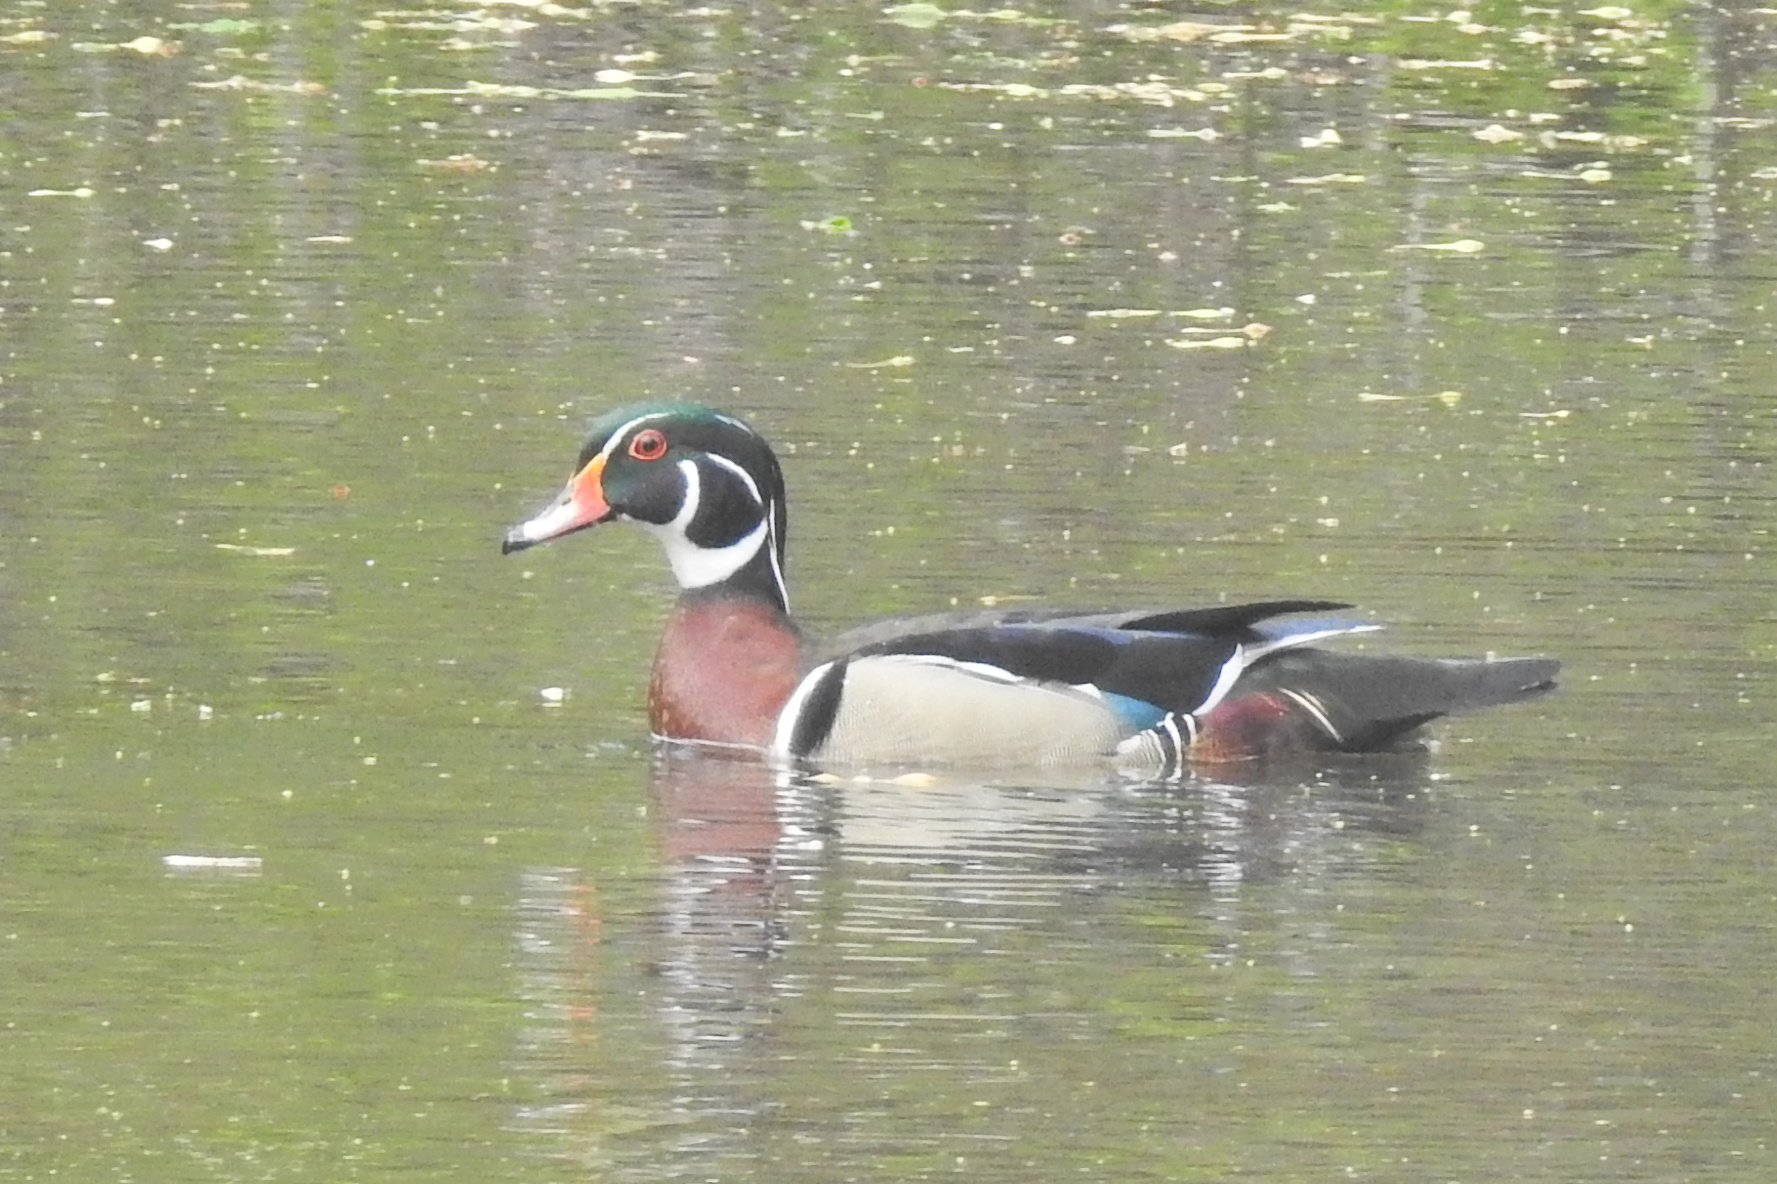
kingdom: Animalia
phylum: Chordata
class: Aves
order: Anseriformes
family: Anatidae
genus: Aix
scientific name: Aix sponsa
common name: Wood duck
